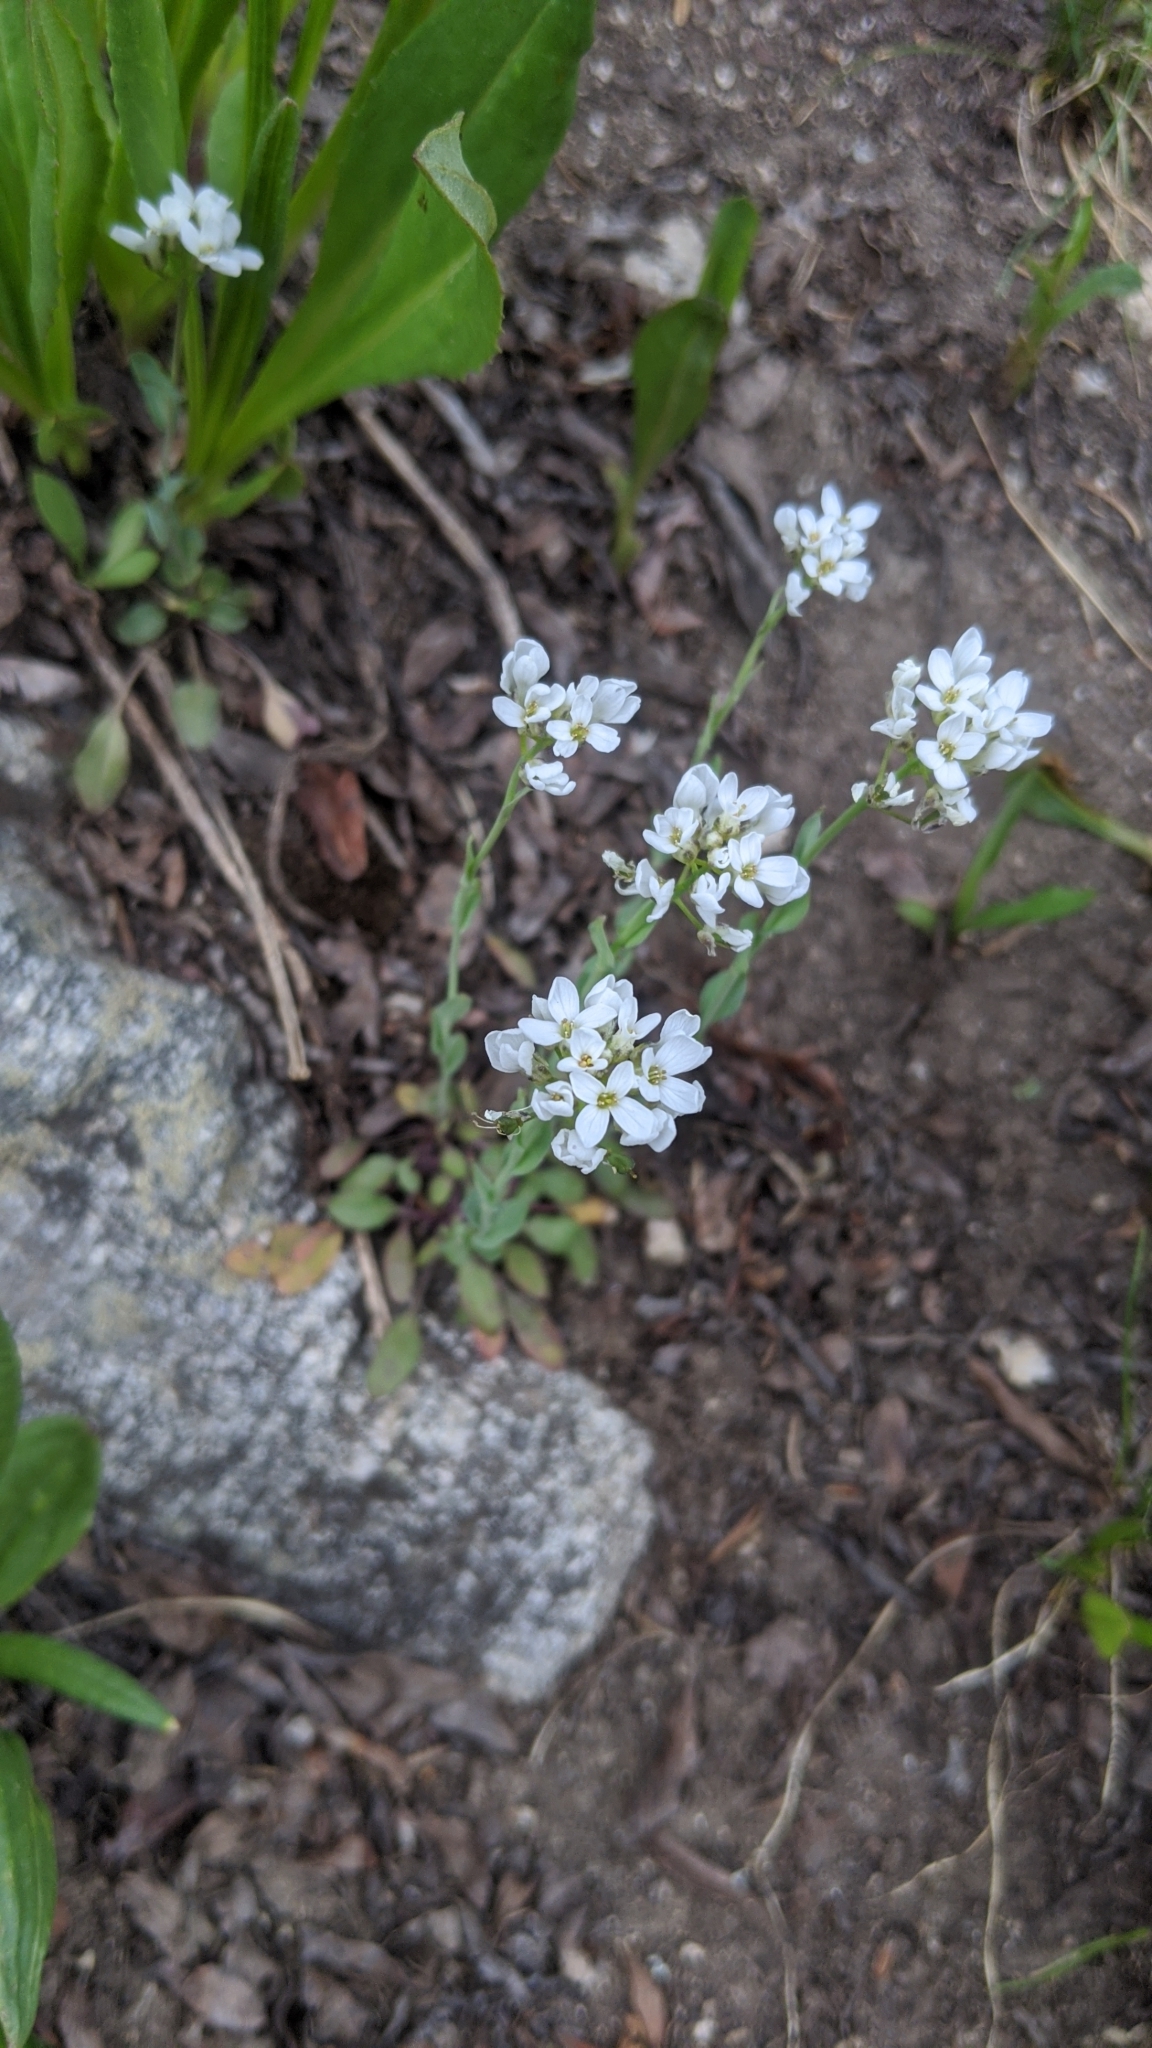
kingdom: Plantae
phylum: Tracheophyta
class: Magnoliopsida
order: Brassicales
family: Brassicaceae
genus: Noccaea
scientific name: Noccaea fendleri
